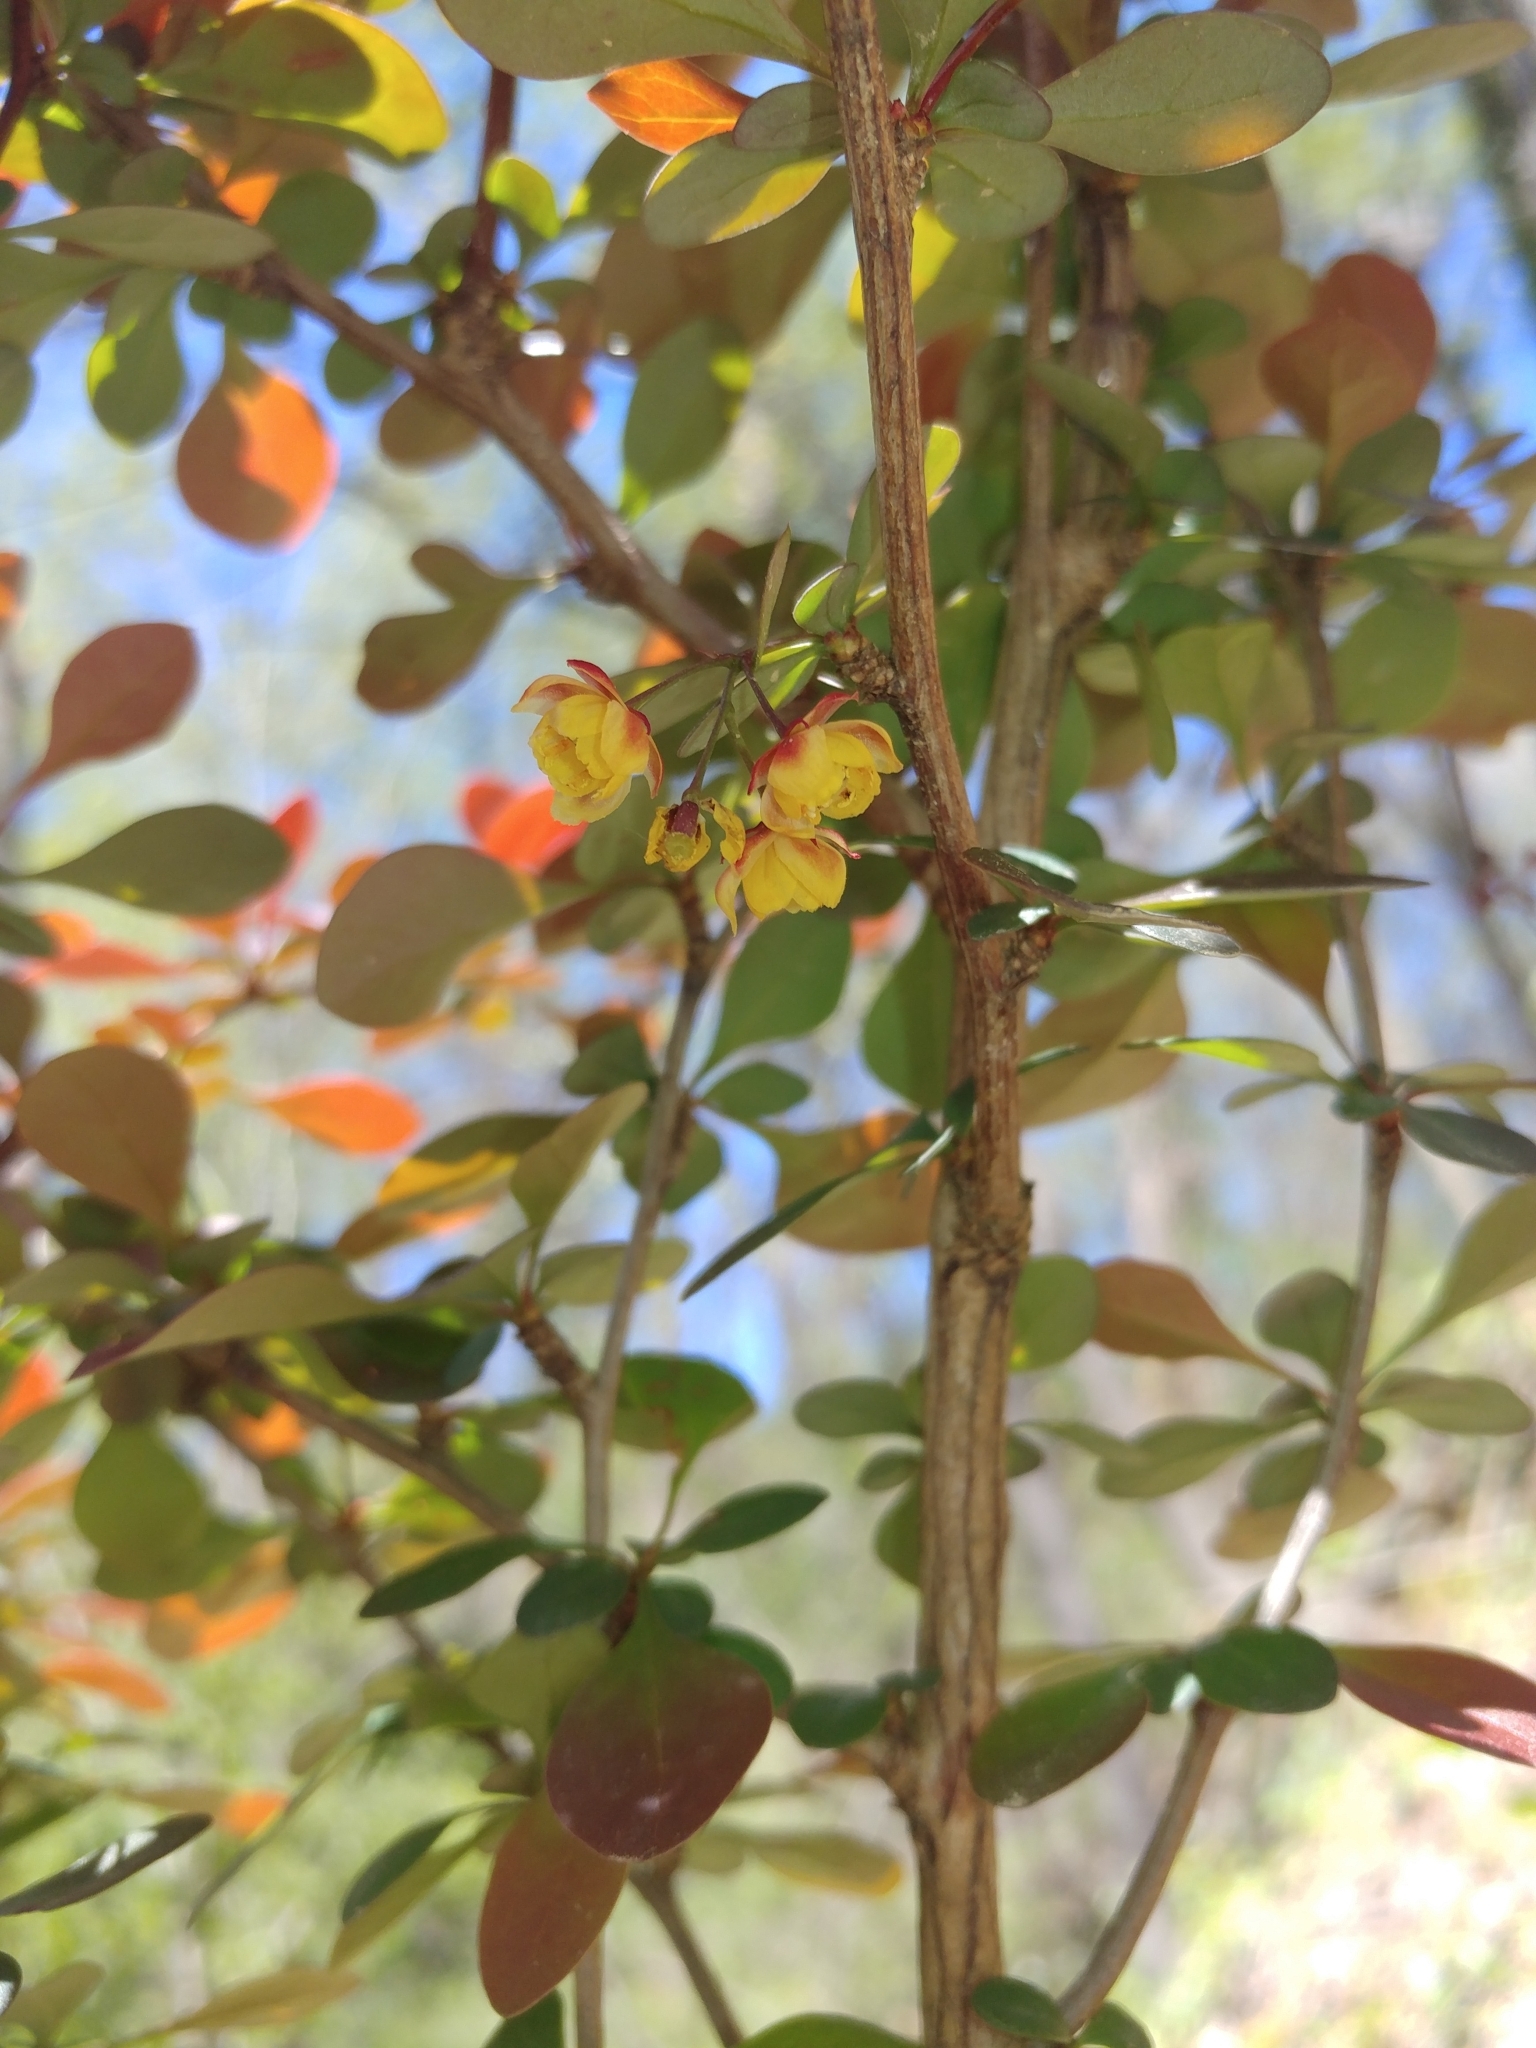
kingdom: Plantae
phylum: Tracheophyta
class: Magnoliopsida
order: Ranunculales
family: Berberidaceae
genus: Berberis
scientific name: Berberis thunbergii
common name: Japanese barberry
